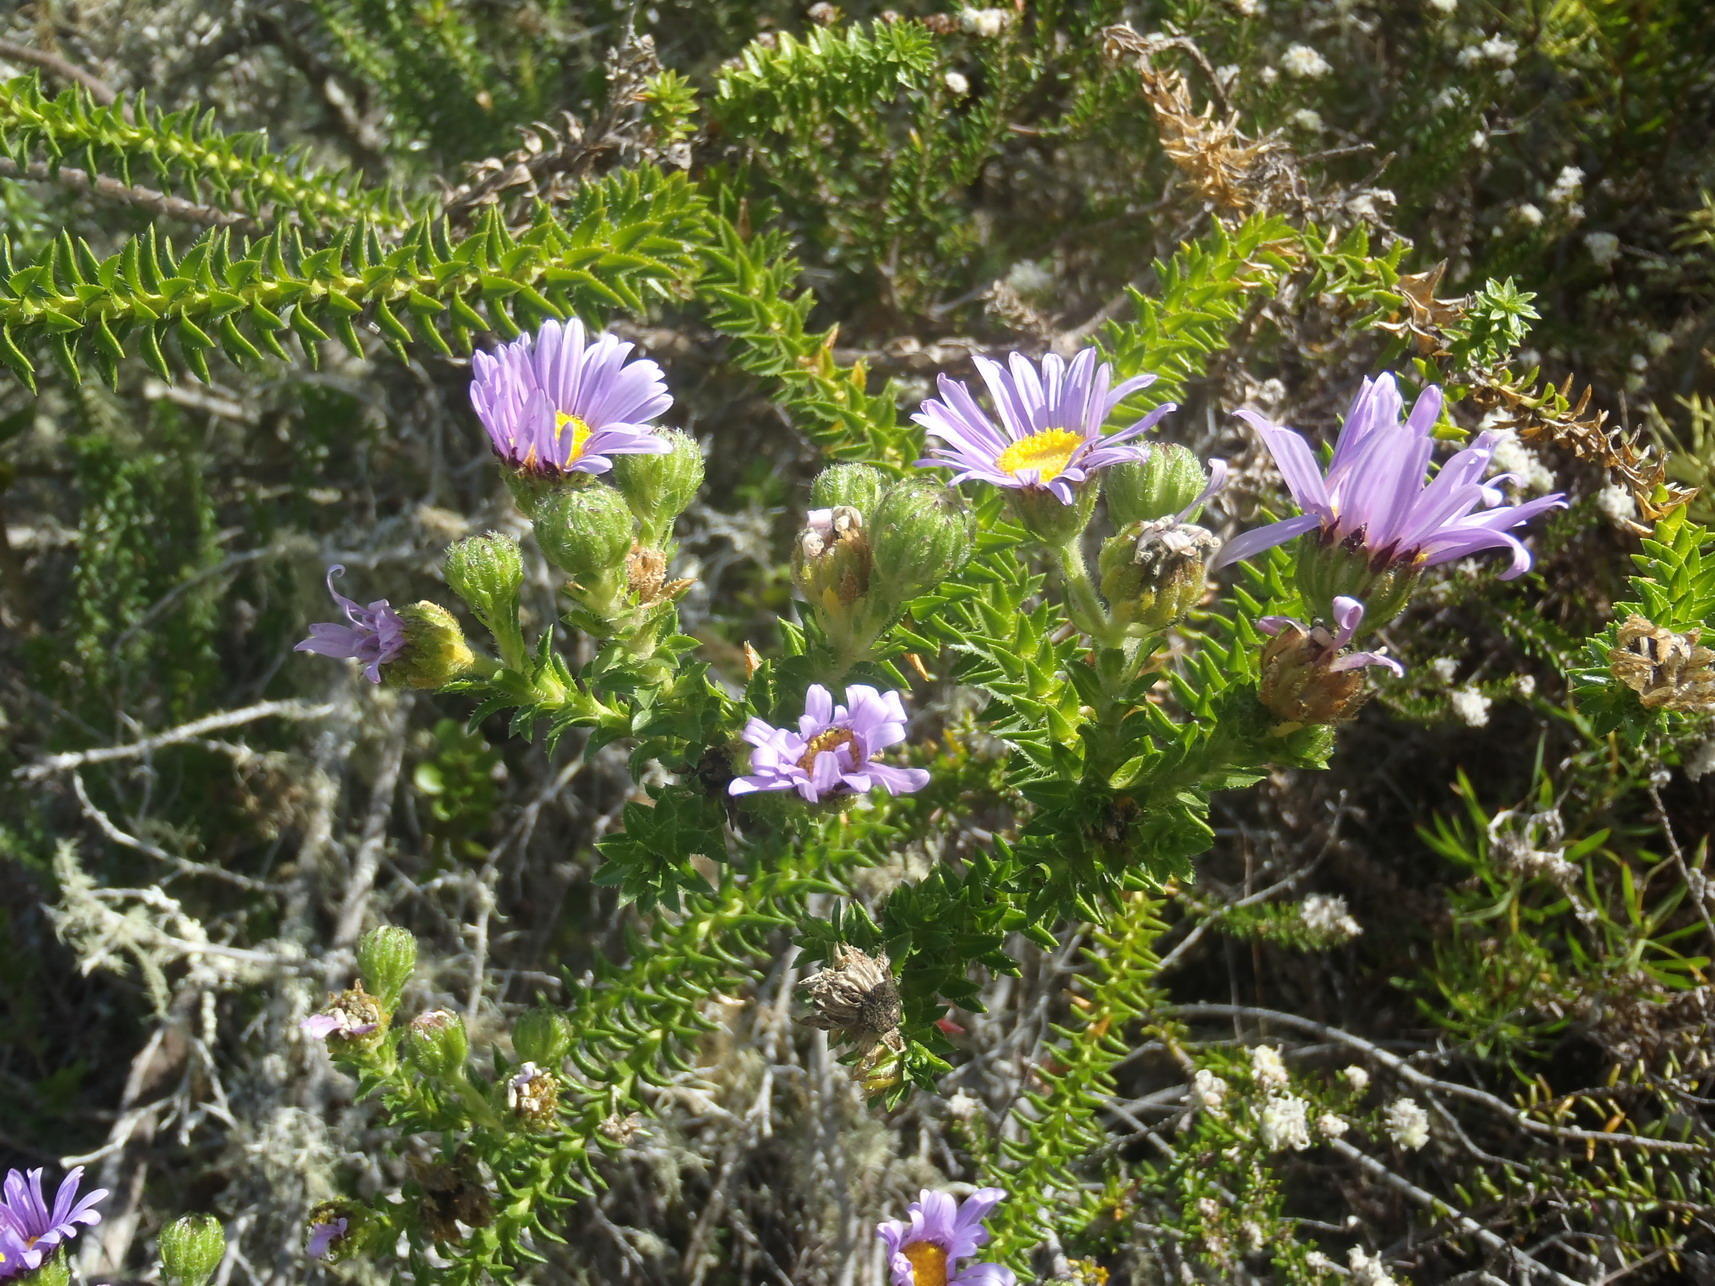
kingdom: Plantae
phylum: Tracheophyta
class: Magnoliopsida
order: Asterales
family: Asteraceae
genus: Felicia
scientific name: Felicia echinata
